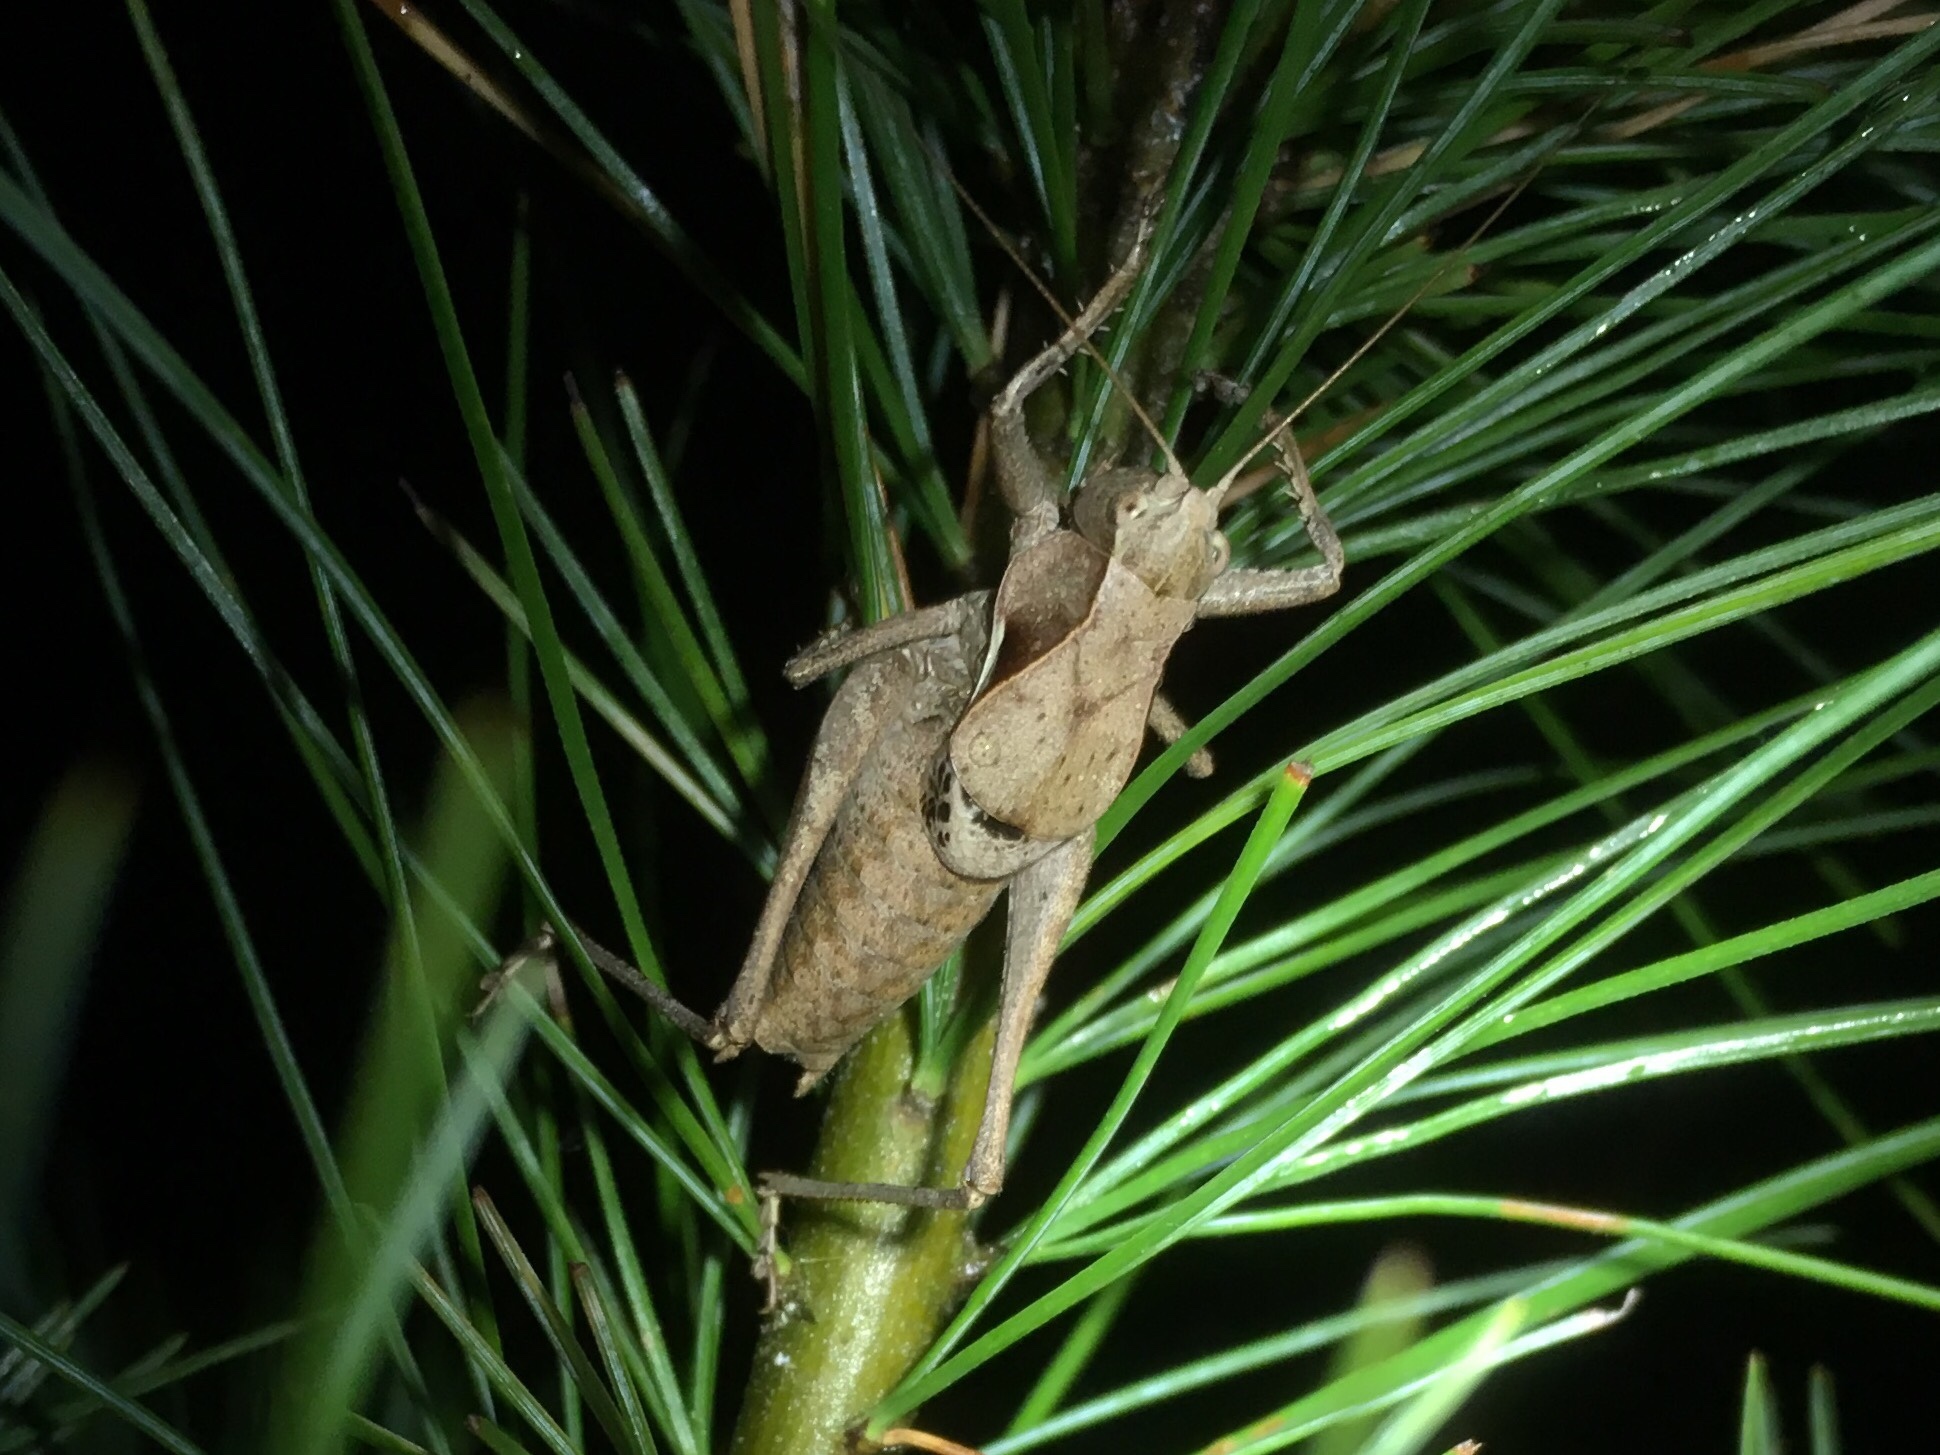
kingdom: Animalia
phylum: Arthropoda
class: Insecta
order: Orthoptera
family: Tettigoniidae
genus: Atlanticus
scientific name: Atlanticus davisi
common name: Davis's shield-bearer
